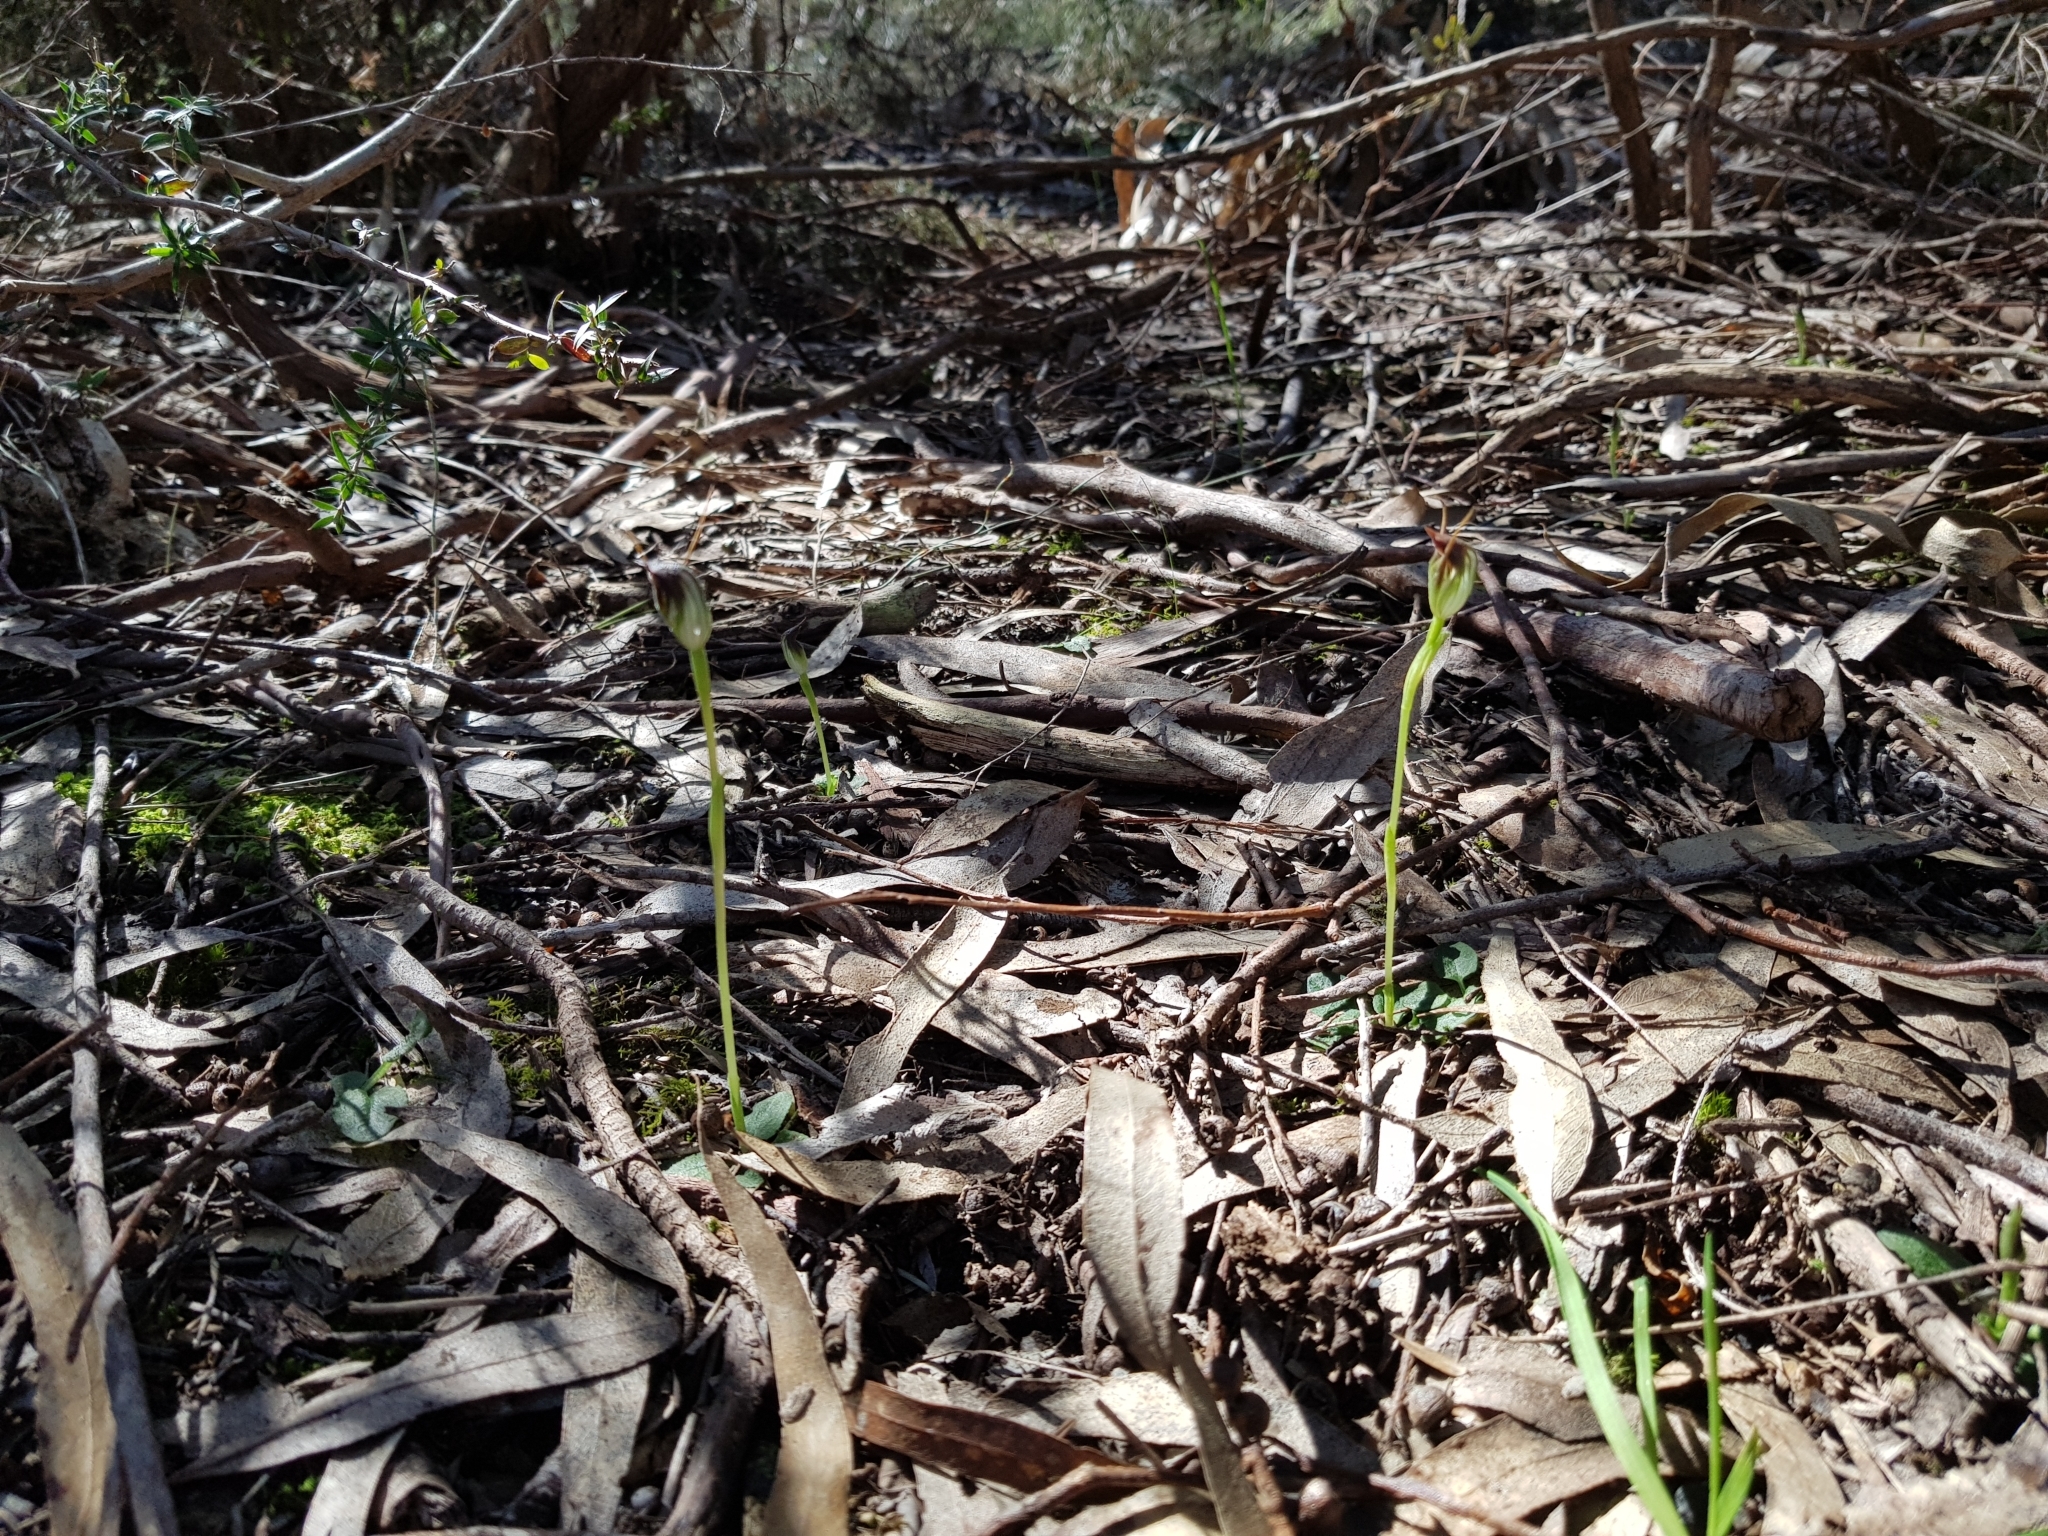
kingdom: Plantae
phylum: Tracheophyta
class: Liliopsida
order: Asparagales
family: Orchidaceae
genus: Pterostylis
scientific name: Pterostylis pedunculata
